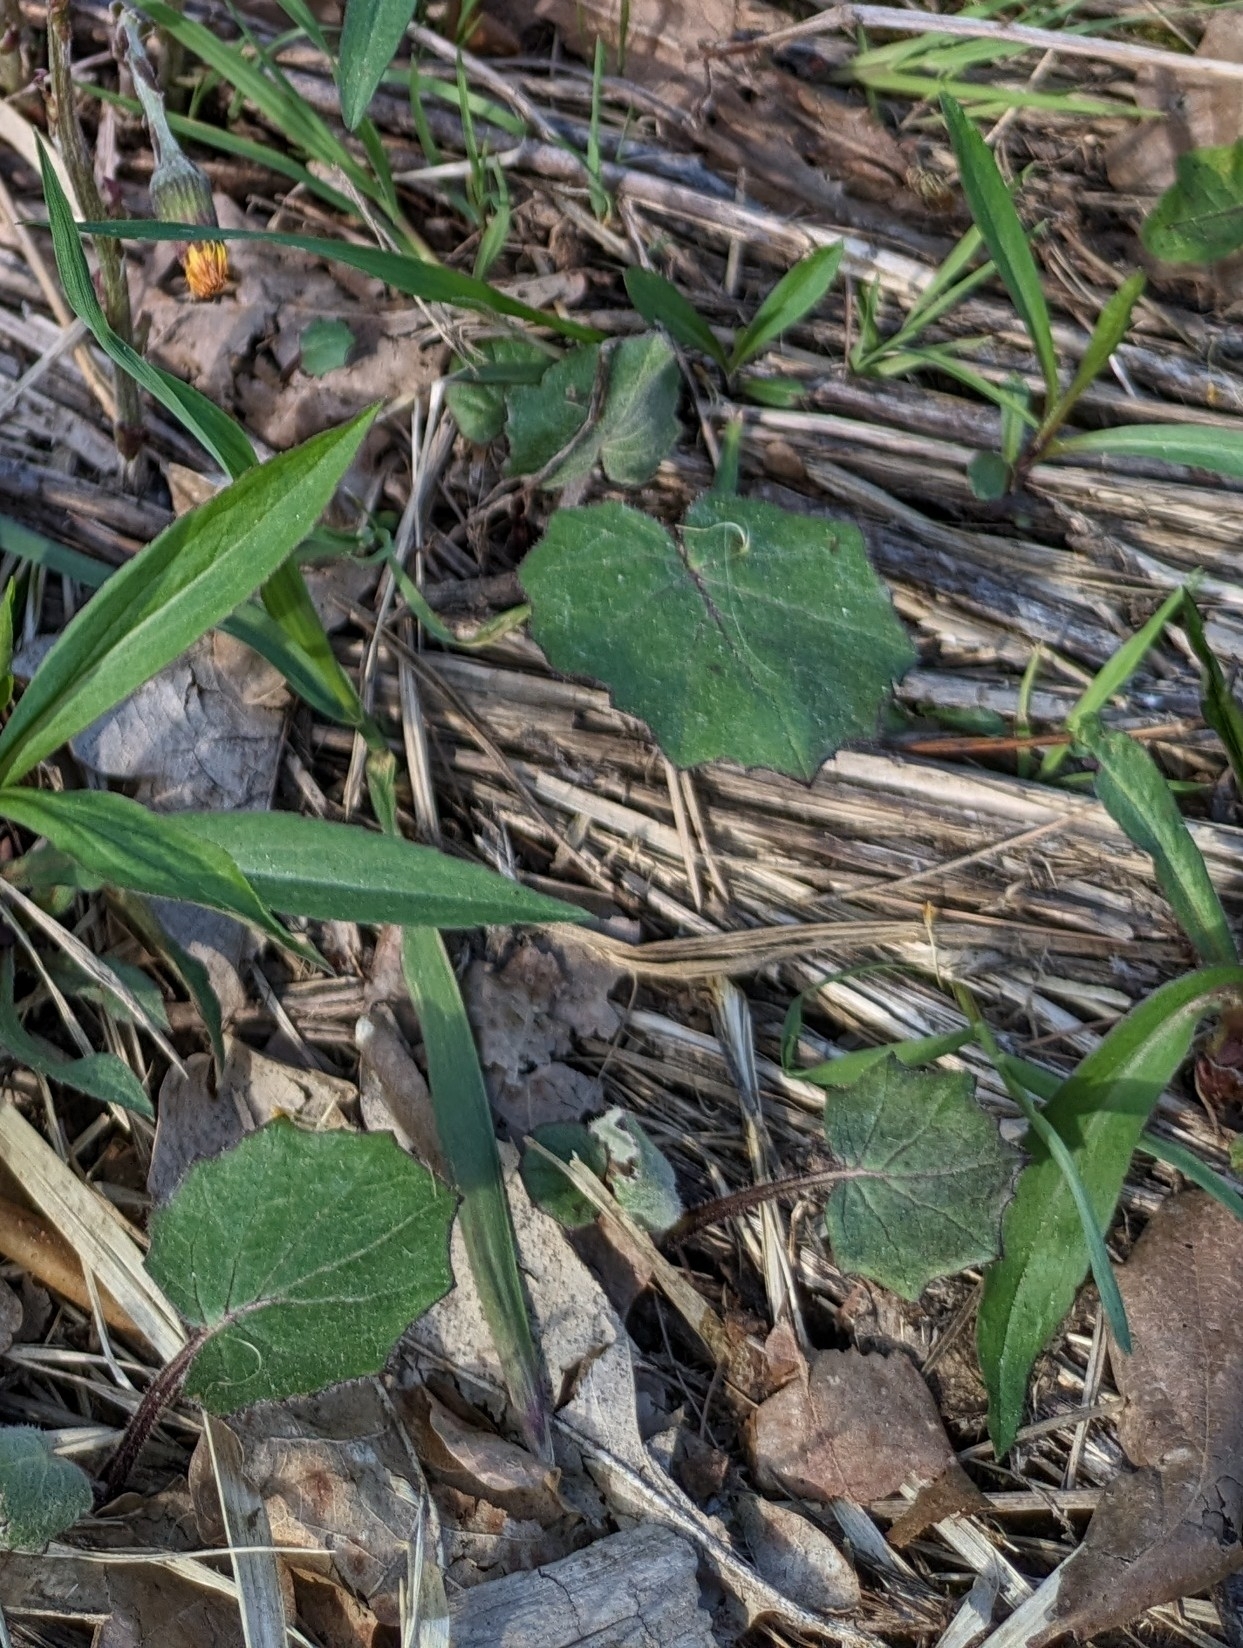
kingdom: Plantae
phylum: Tracheophyta
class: Magnoliopsida
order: Asterales
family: Asteraceae
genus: Tussilago
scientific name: Tussilago farfara
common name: Coltsfoot
